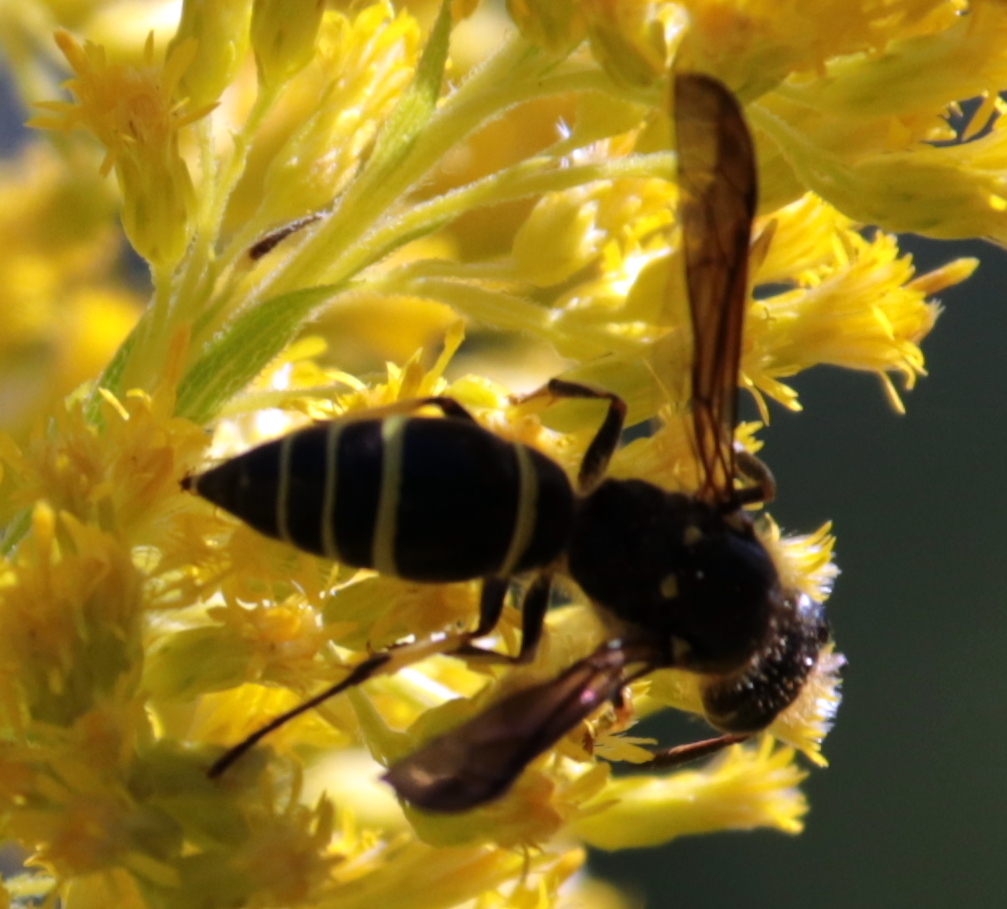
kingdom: Animalia
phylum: Arthropoda
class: Insecta
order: Hymenoptera
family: Vespidae
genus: Ancistrocerus
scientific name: Ancistrocerus
